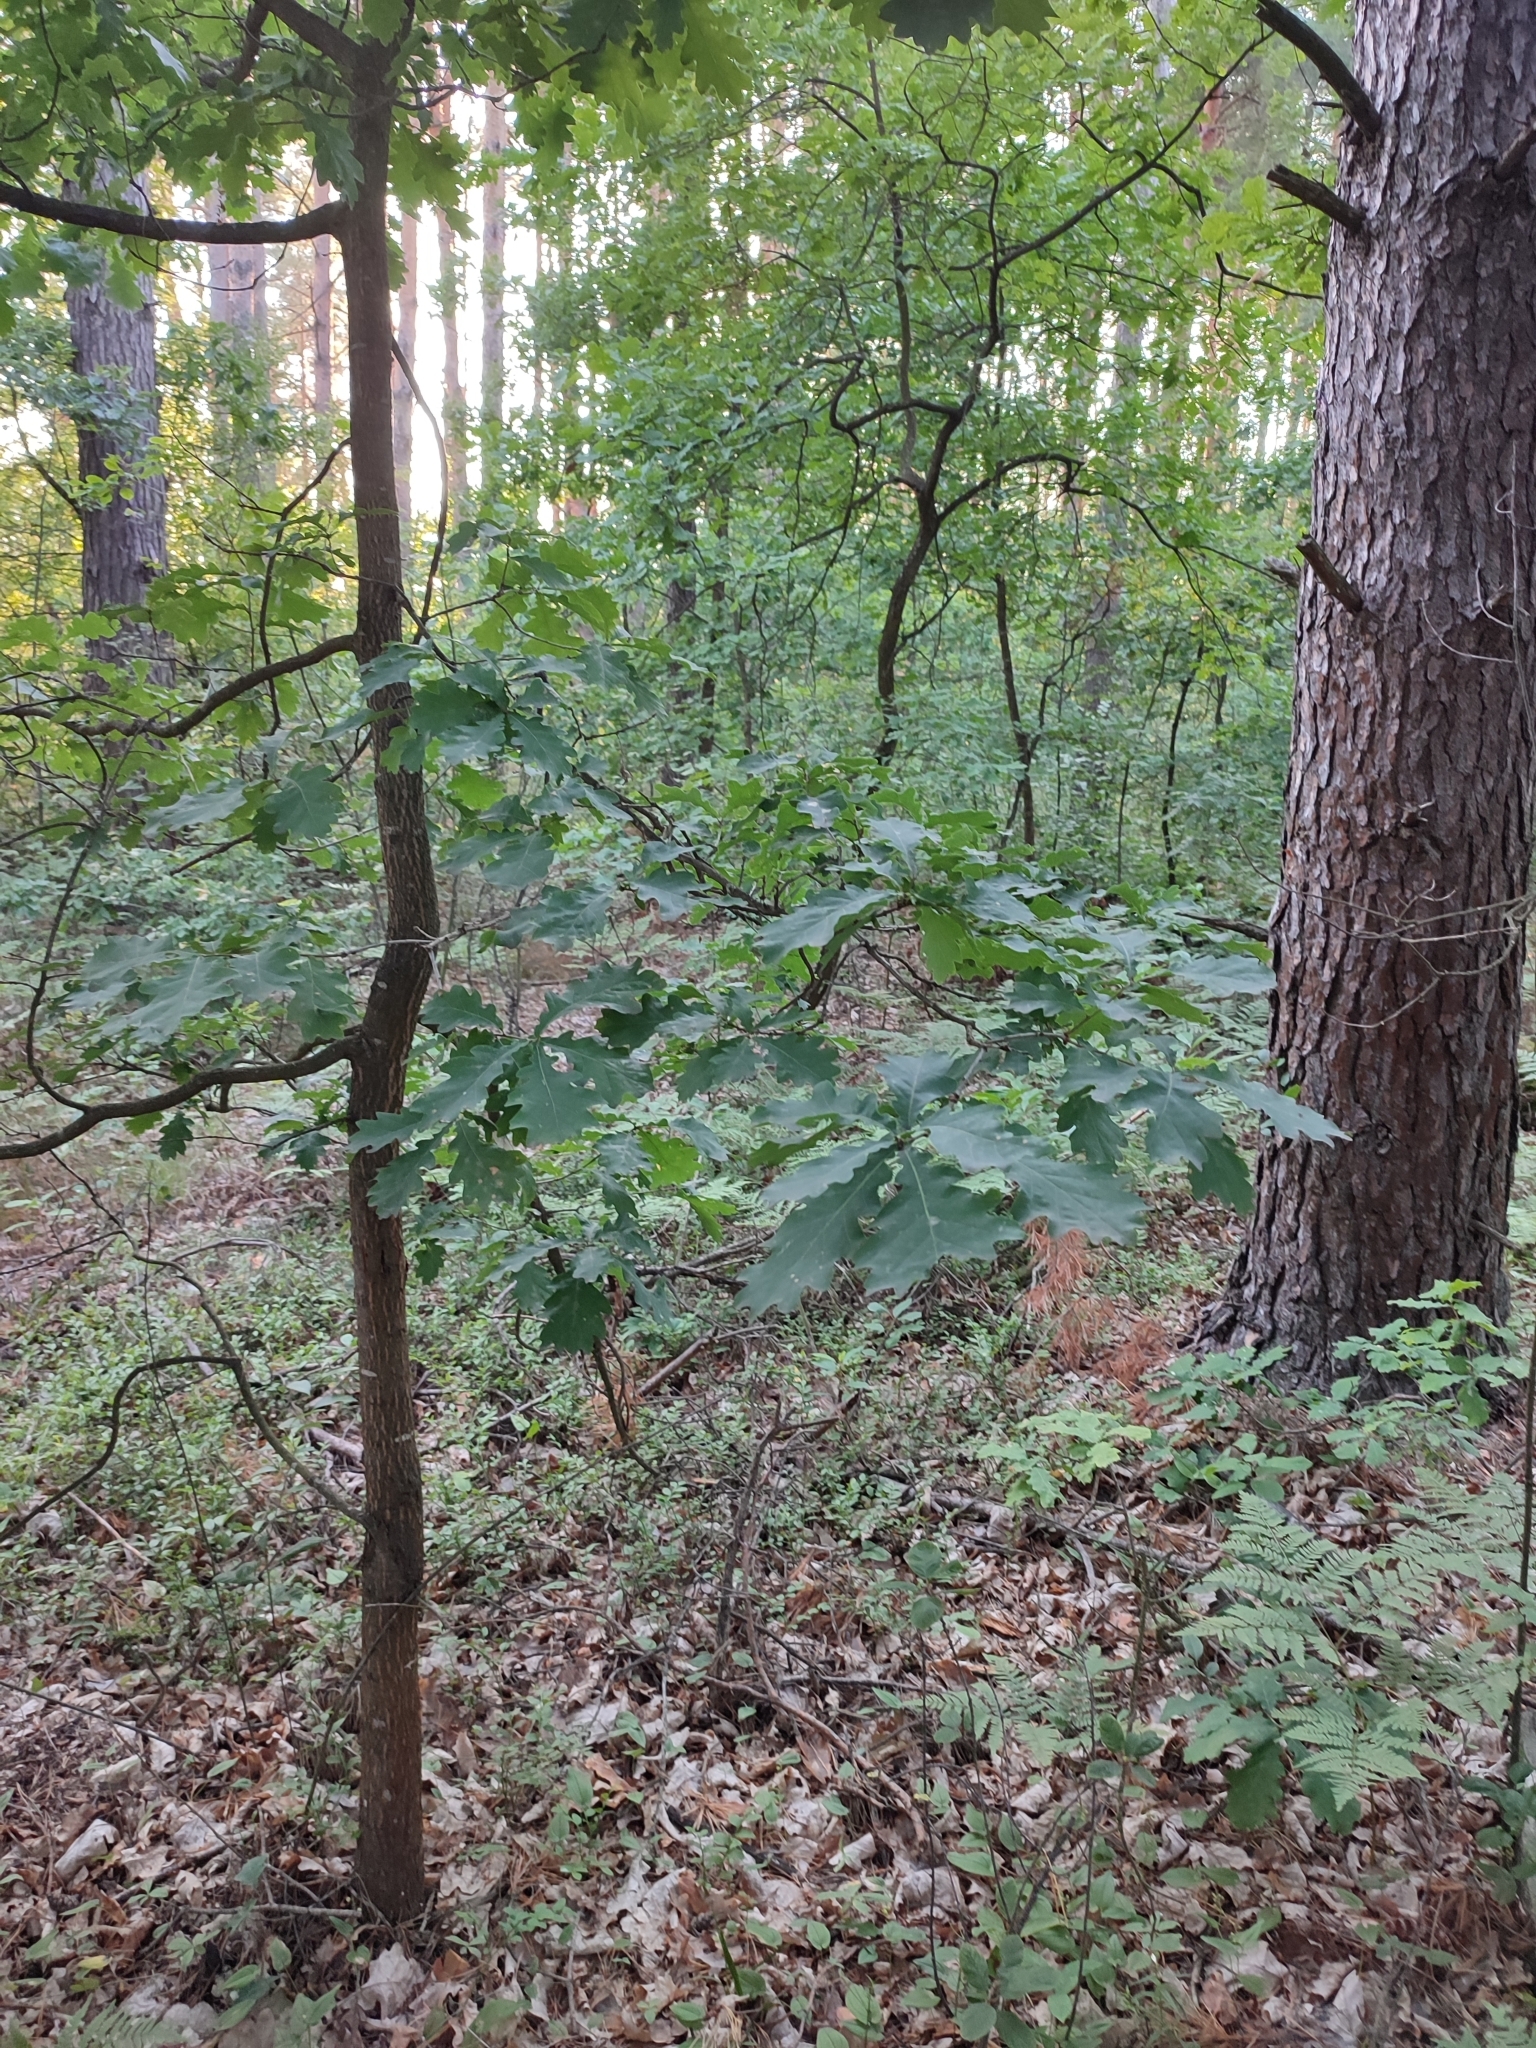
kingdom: Plantae
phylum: Tracheophyta
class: Magnoliopsida
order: Fagales
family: Fagaceae
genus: Quercus
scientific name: Quercus robur
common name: Pedunculate oak
